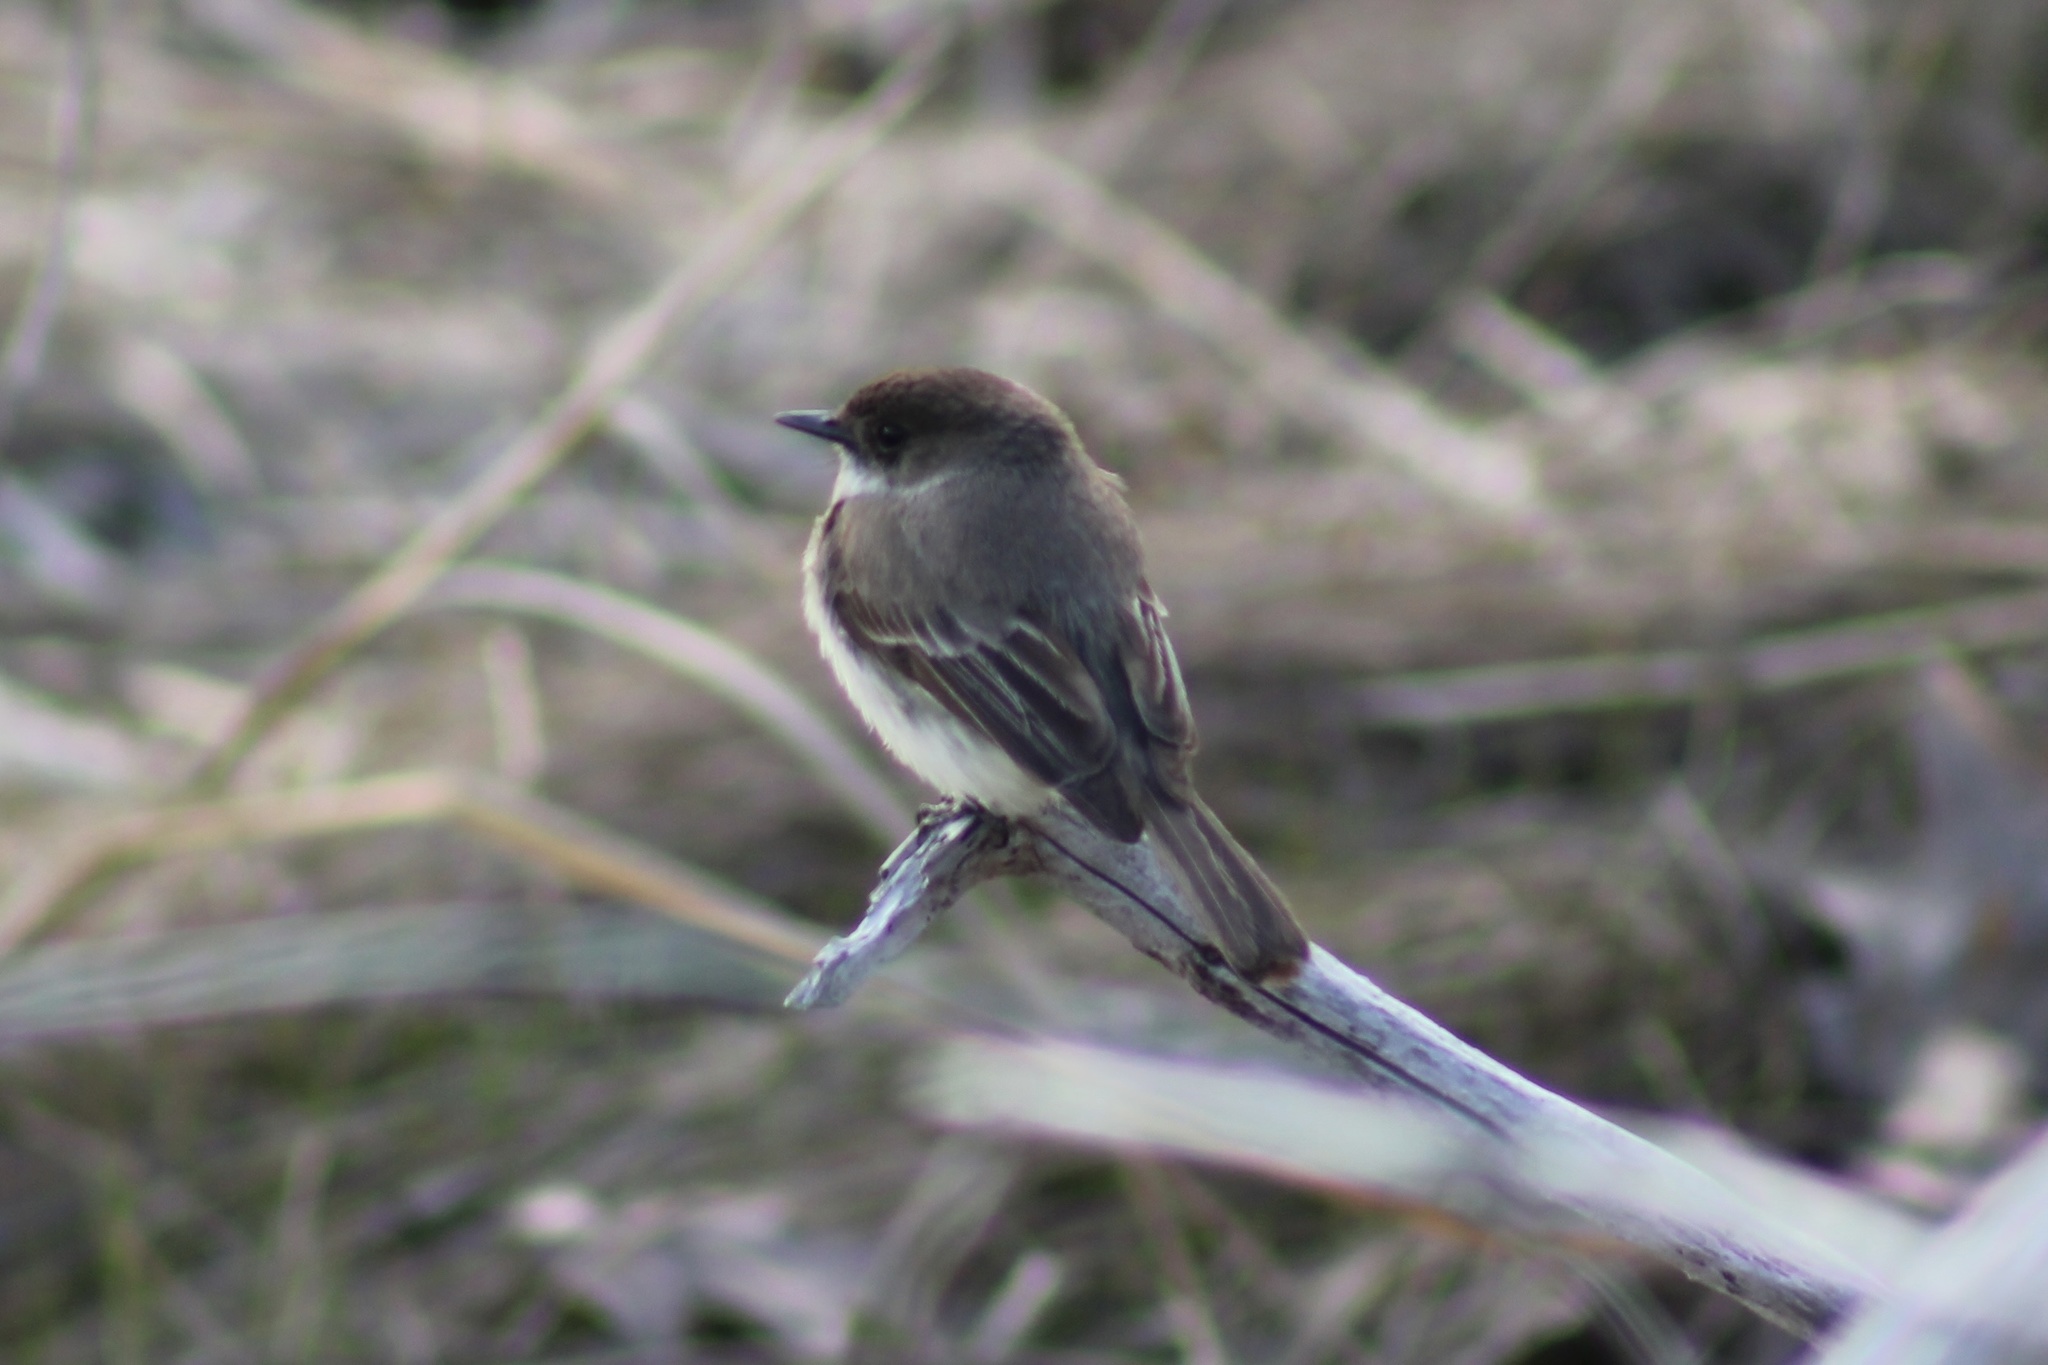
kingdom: Animalia
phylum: Chordata
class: Aves
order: Passeriformes
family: Tyrannidae
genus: Sayornis
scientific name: Sayornis phoebe
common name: Eastern phoebe
